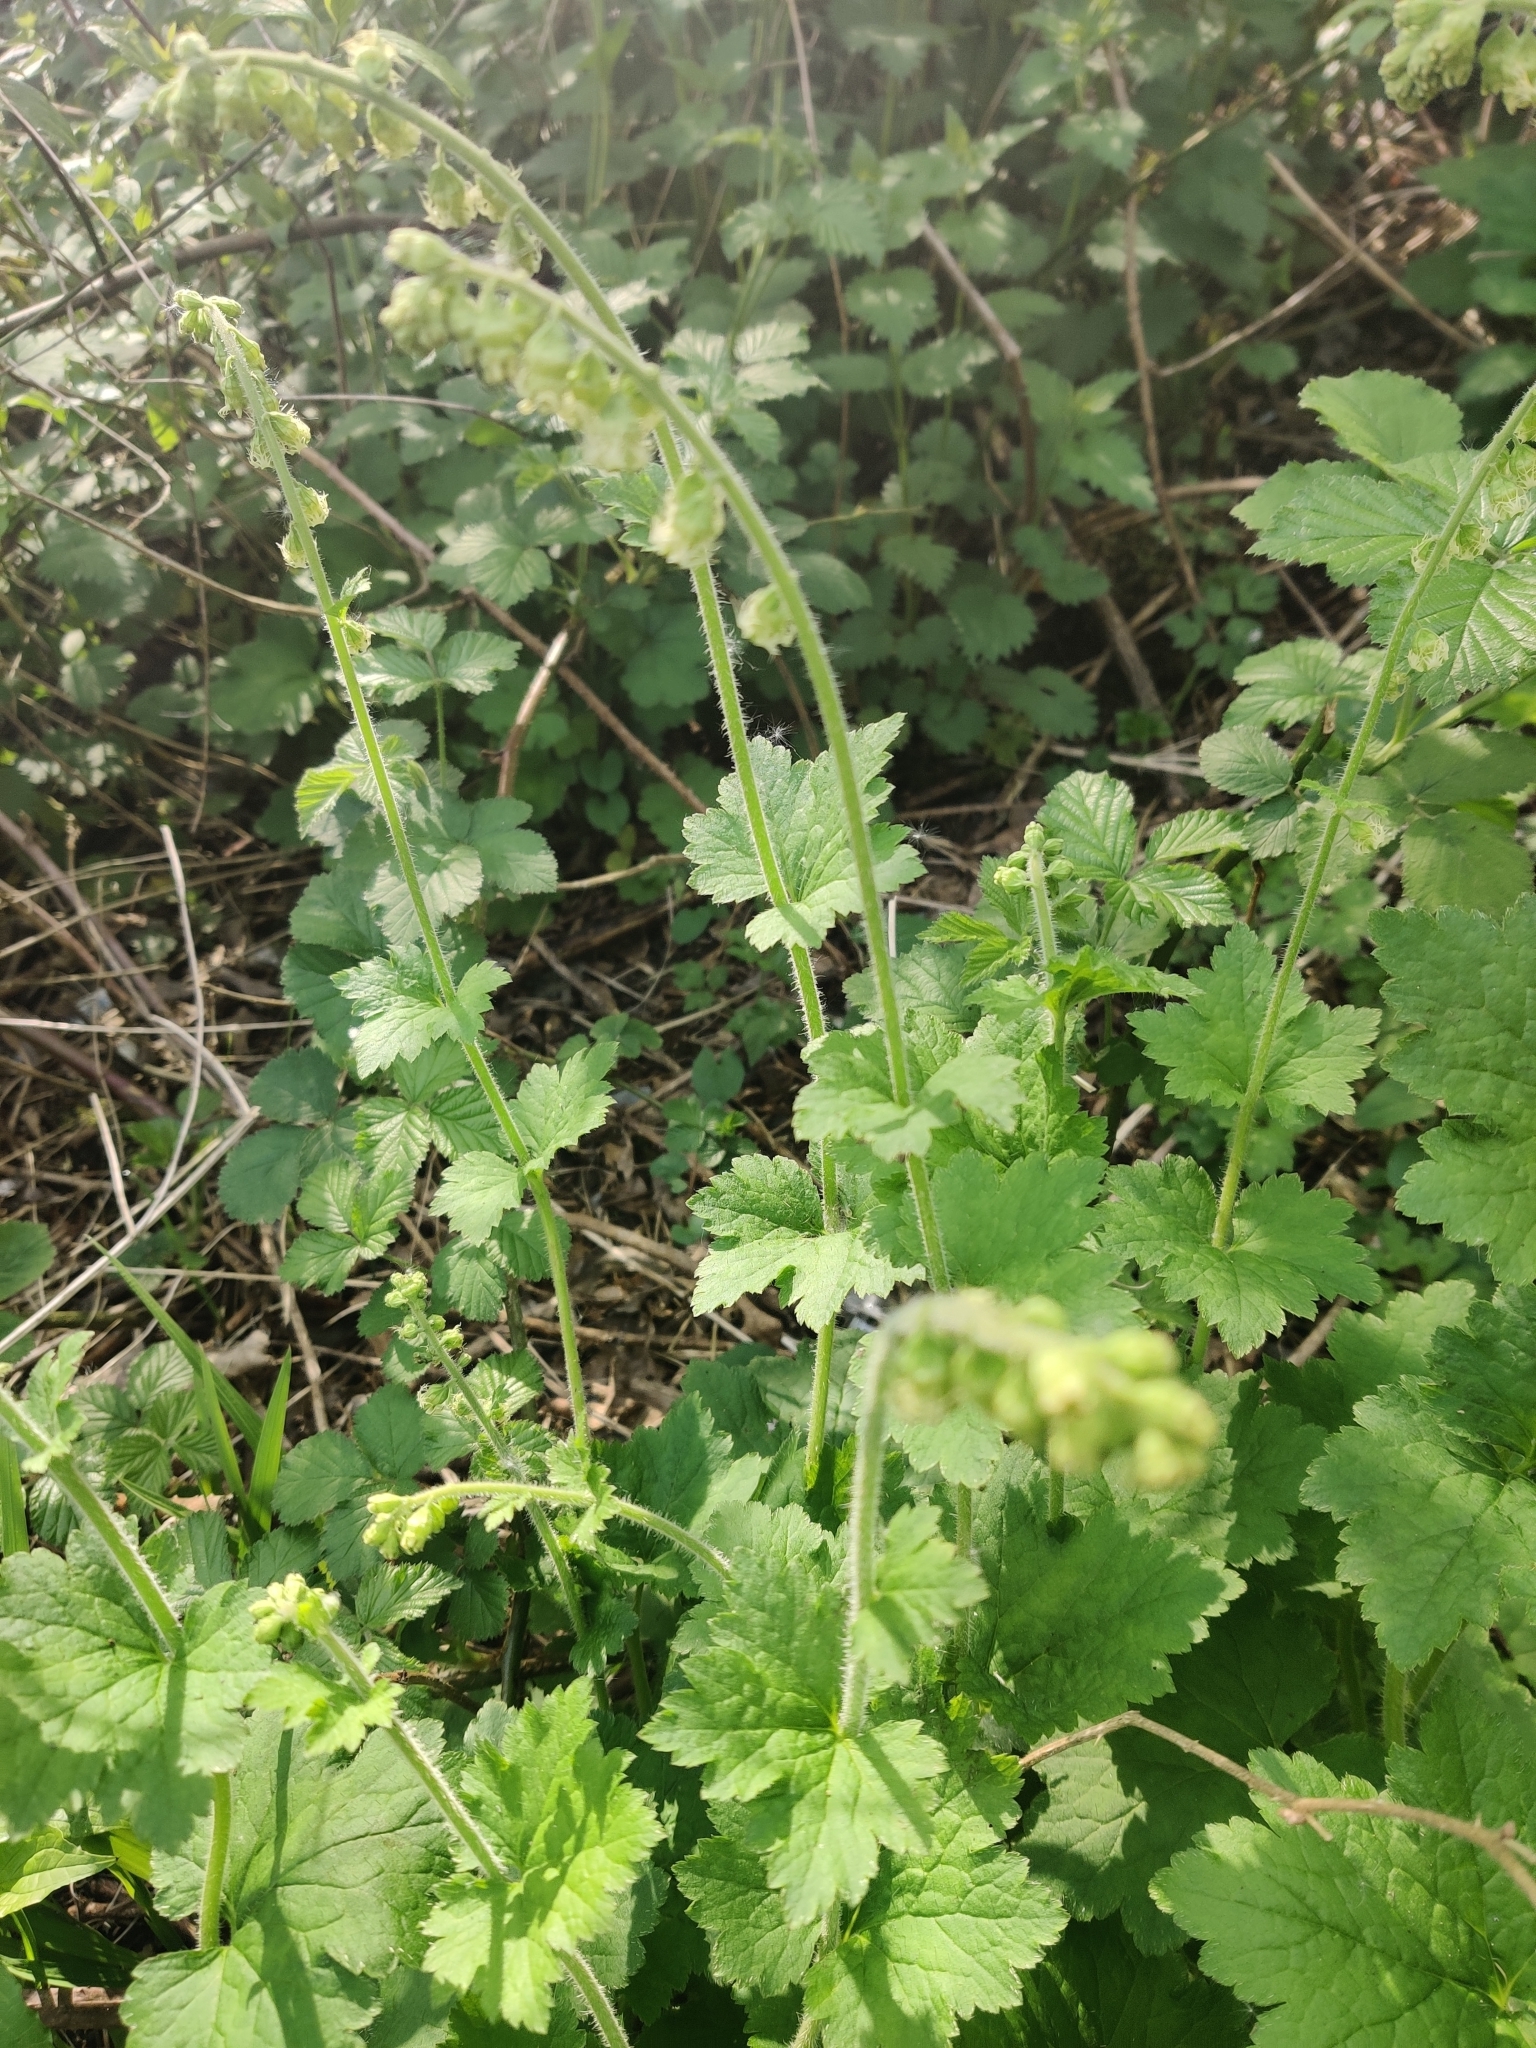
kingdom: Plantae
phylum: Tracheophyta
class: Magnoliopsida
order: Saxifragales
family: Saxifragaceae
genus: Tellima
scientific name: Tellima grandiflora
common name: Fringecups
